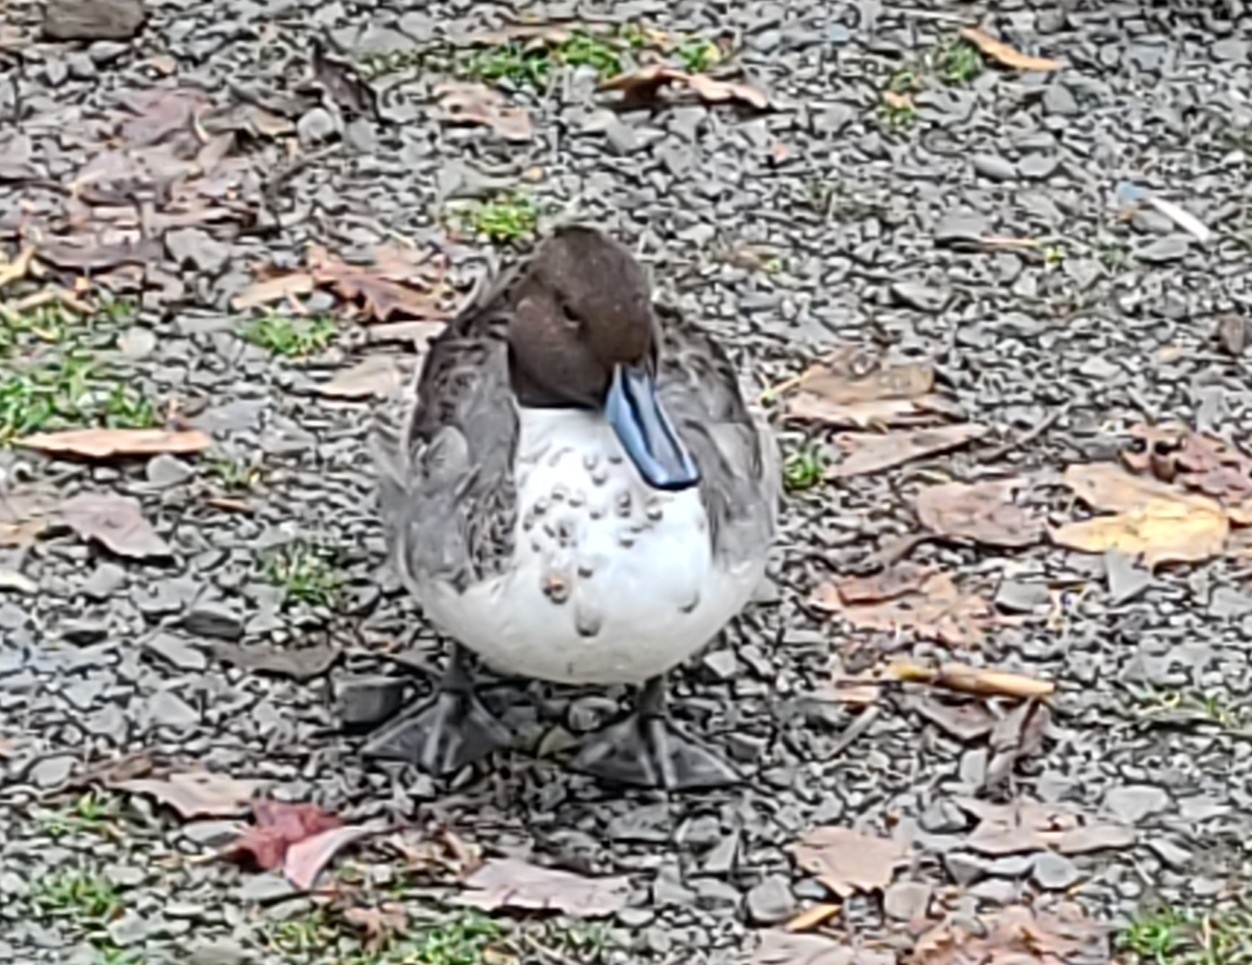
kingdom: Animalia
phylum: Chordata
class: Aves
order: Anseriformes
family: Anatidae
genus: Anas
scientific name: Anas acuta
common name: Northern pintail
